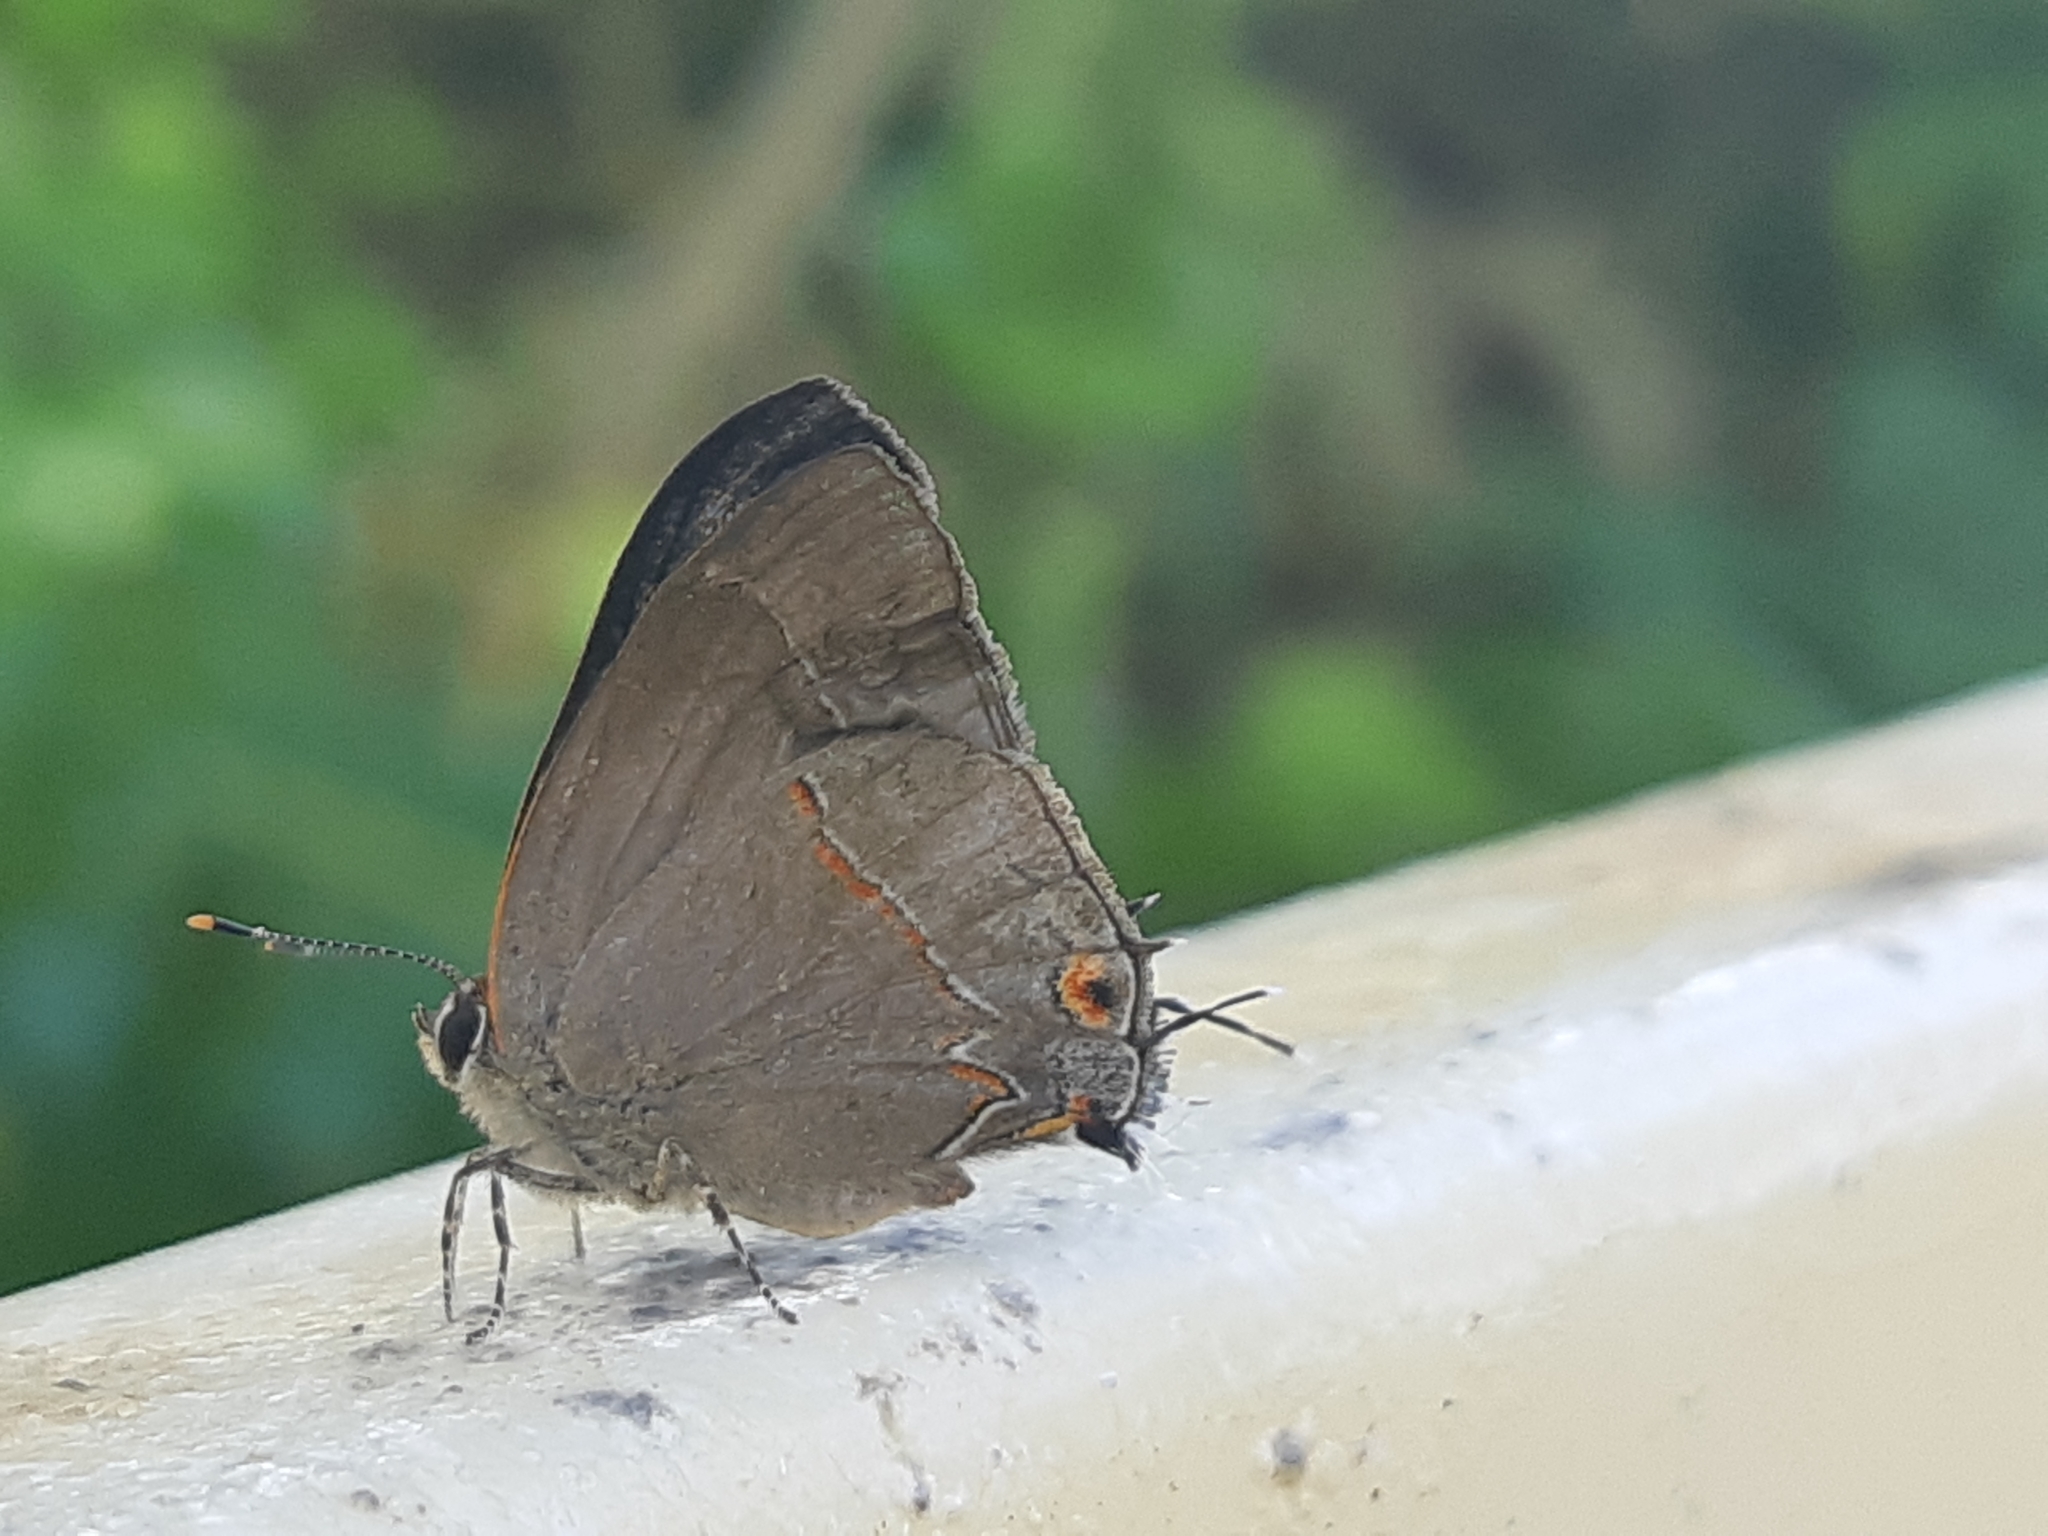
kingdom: Animalia
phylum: Arthropoda
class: Insecta
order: Lepidoptera
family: Lycaenidae
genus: Thecla
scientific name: Thecla joya
